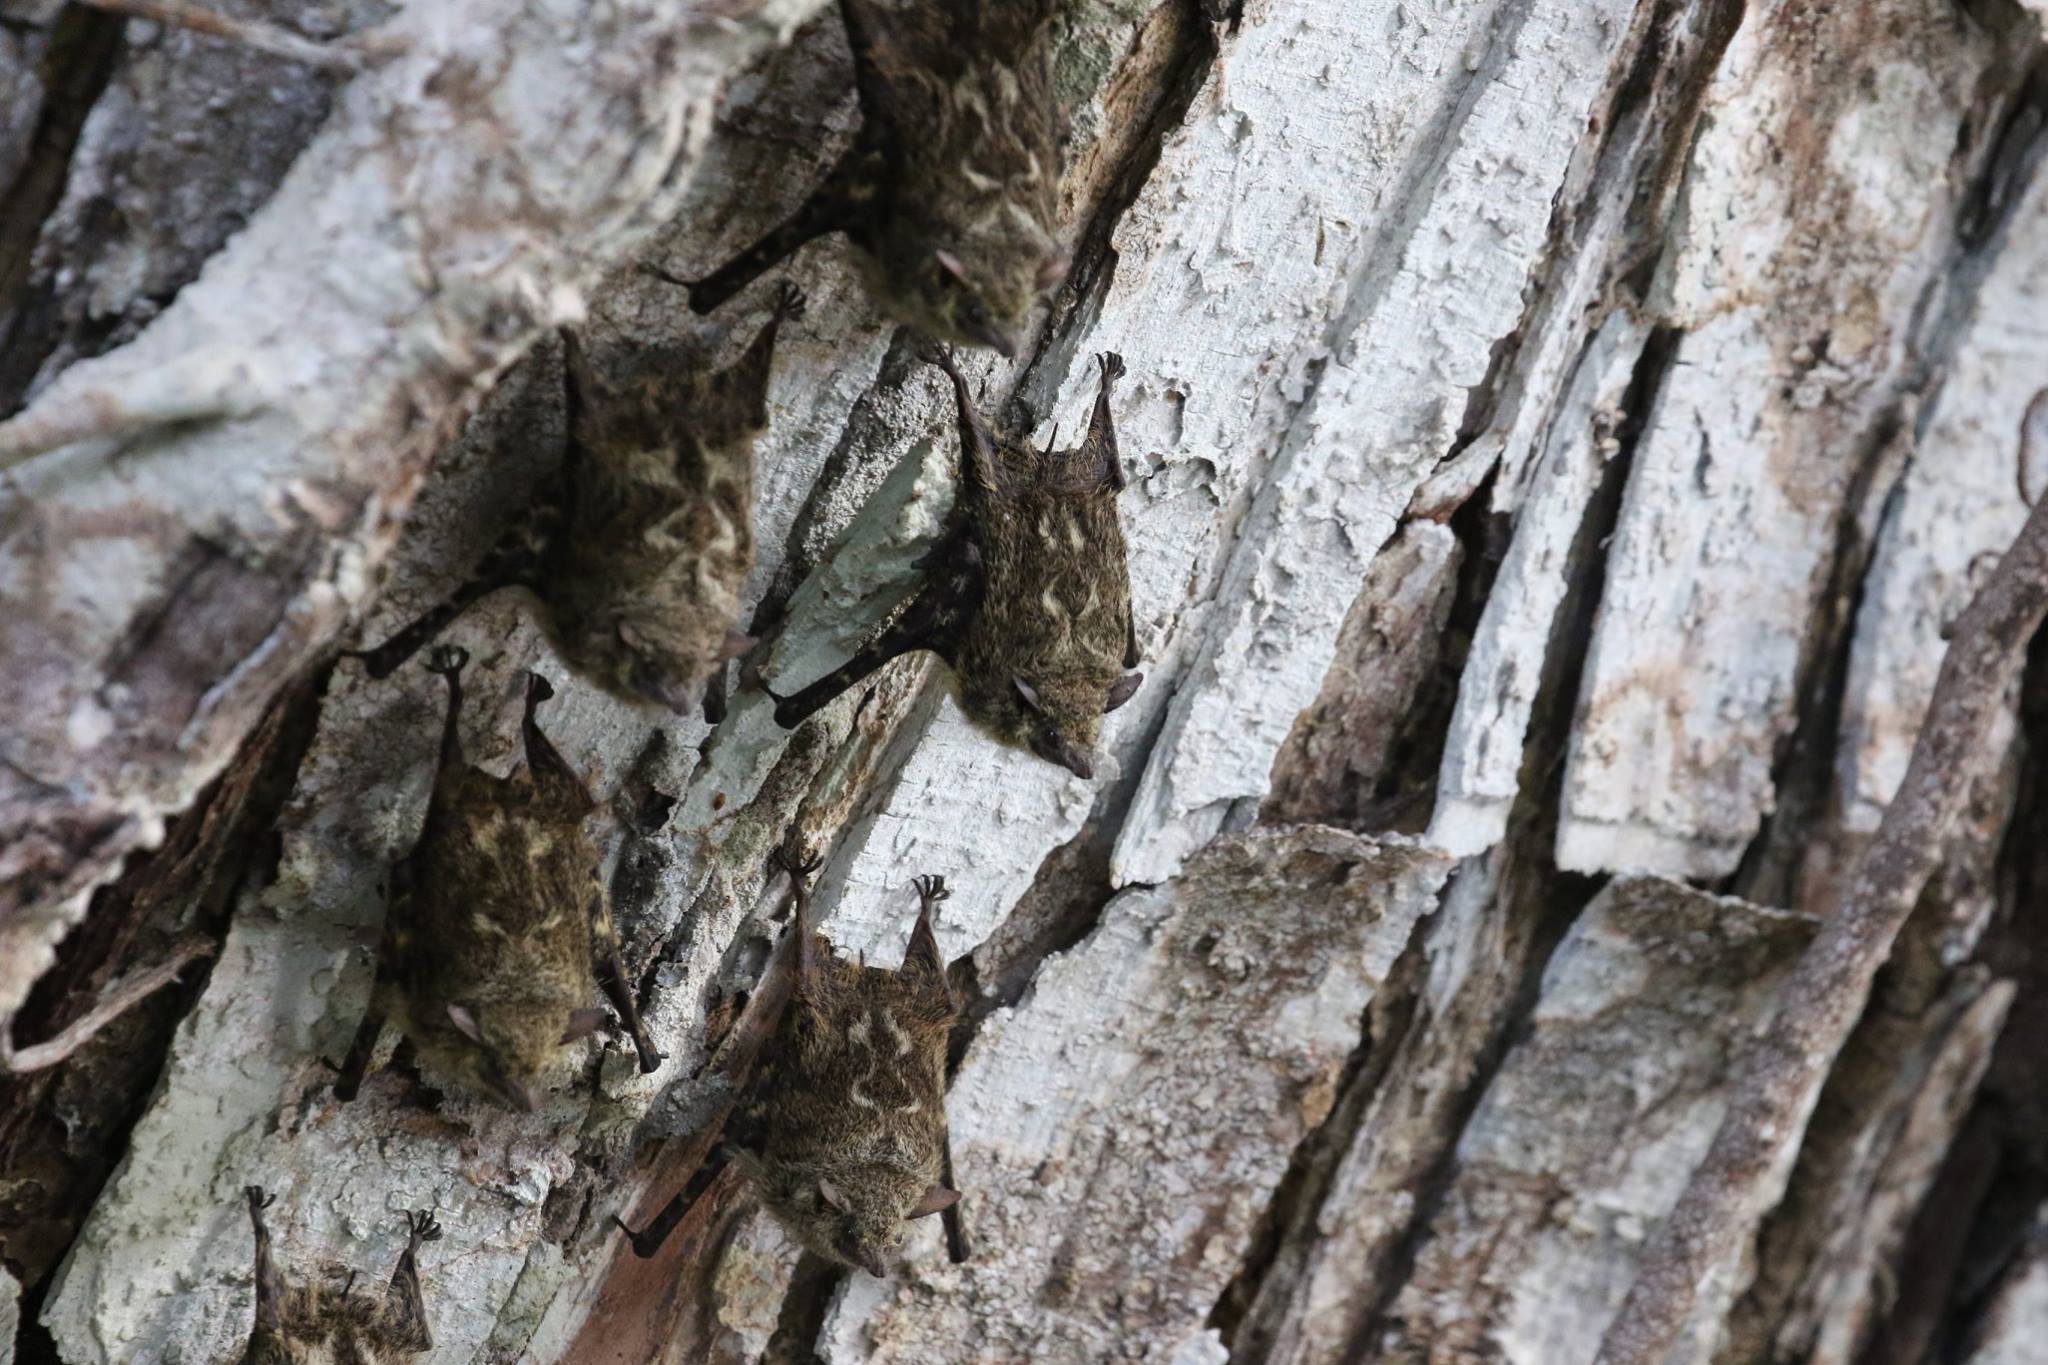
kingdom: Animalia
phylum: Chordata
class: Mammalia
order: Chiroptera
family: Emballonuridae
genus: Rhynchonycteris
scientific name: Rhynchonycteris naso
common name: Proboscis bat
